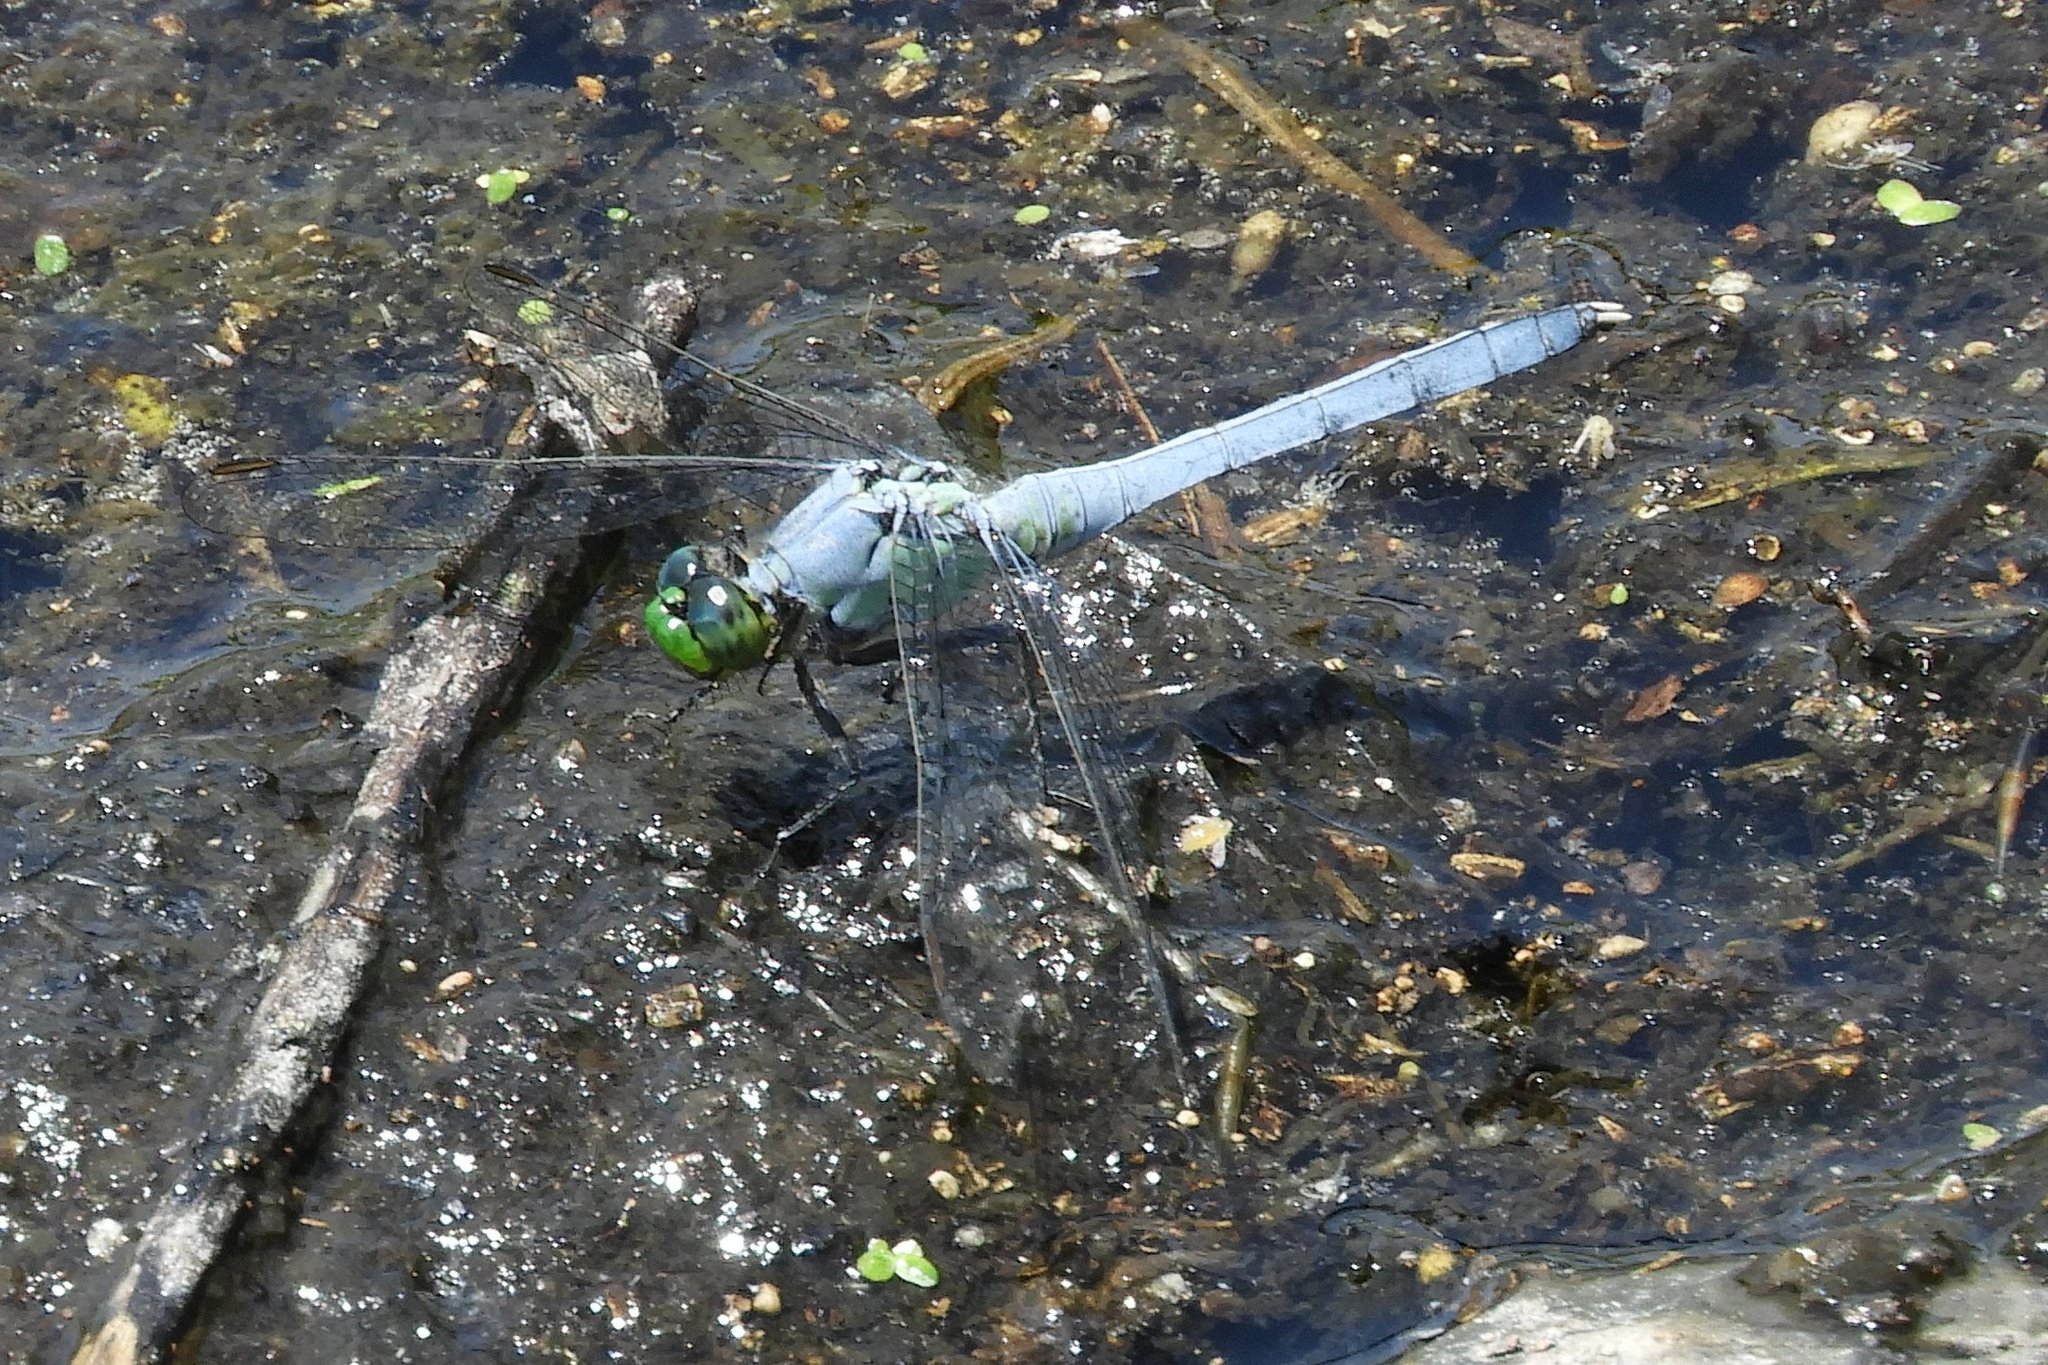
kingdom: Animalia
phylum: Arthropoda
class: Insecta
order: Odonata
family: Libellulidae
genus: Erythemis
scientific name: Erythemis simplicicollis
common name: Eastern pondhawk
